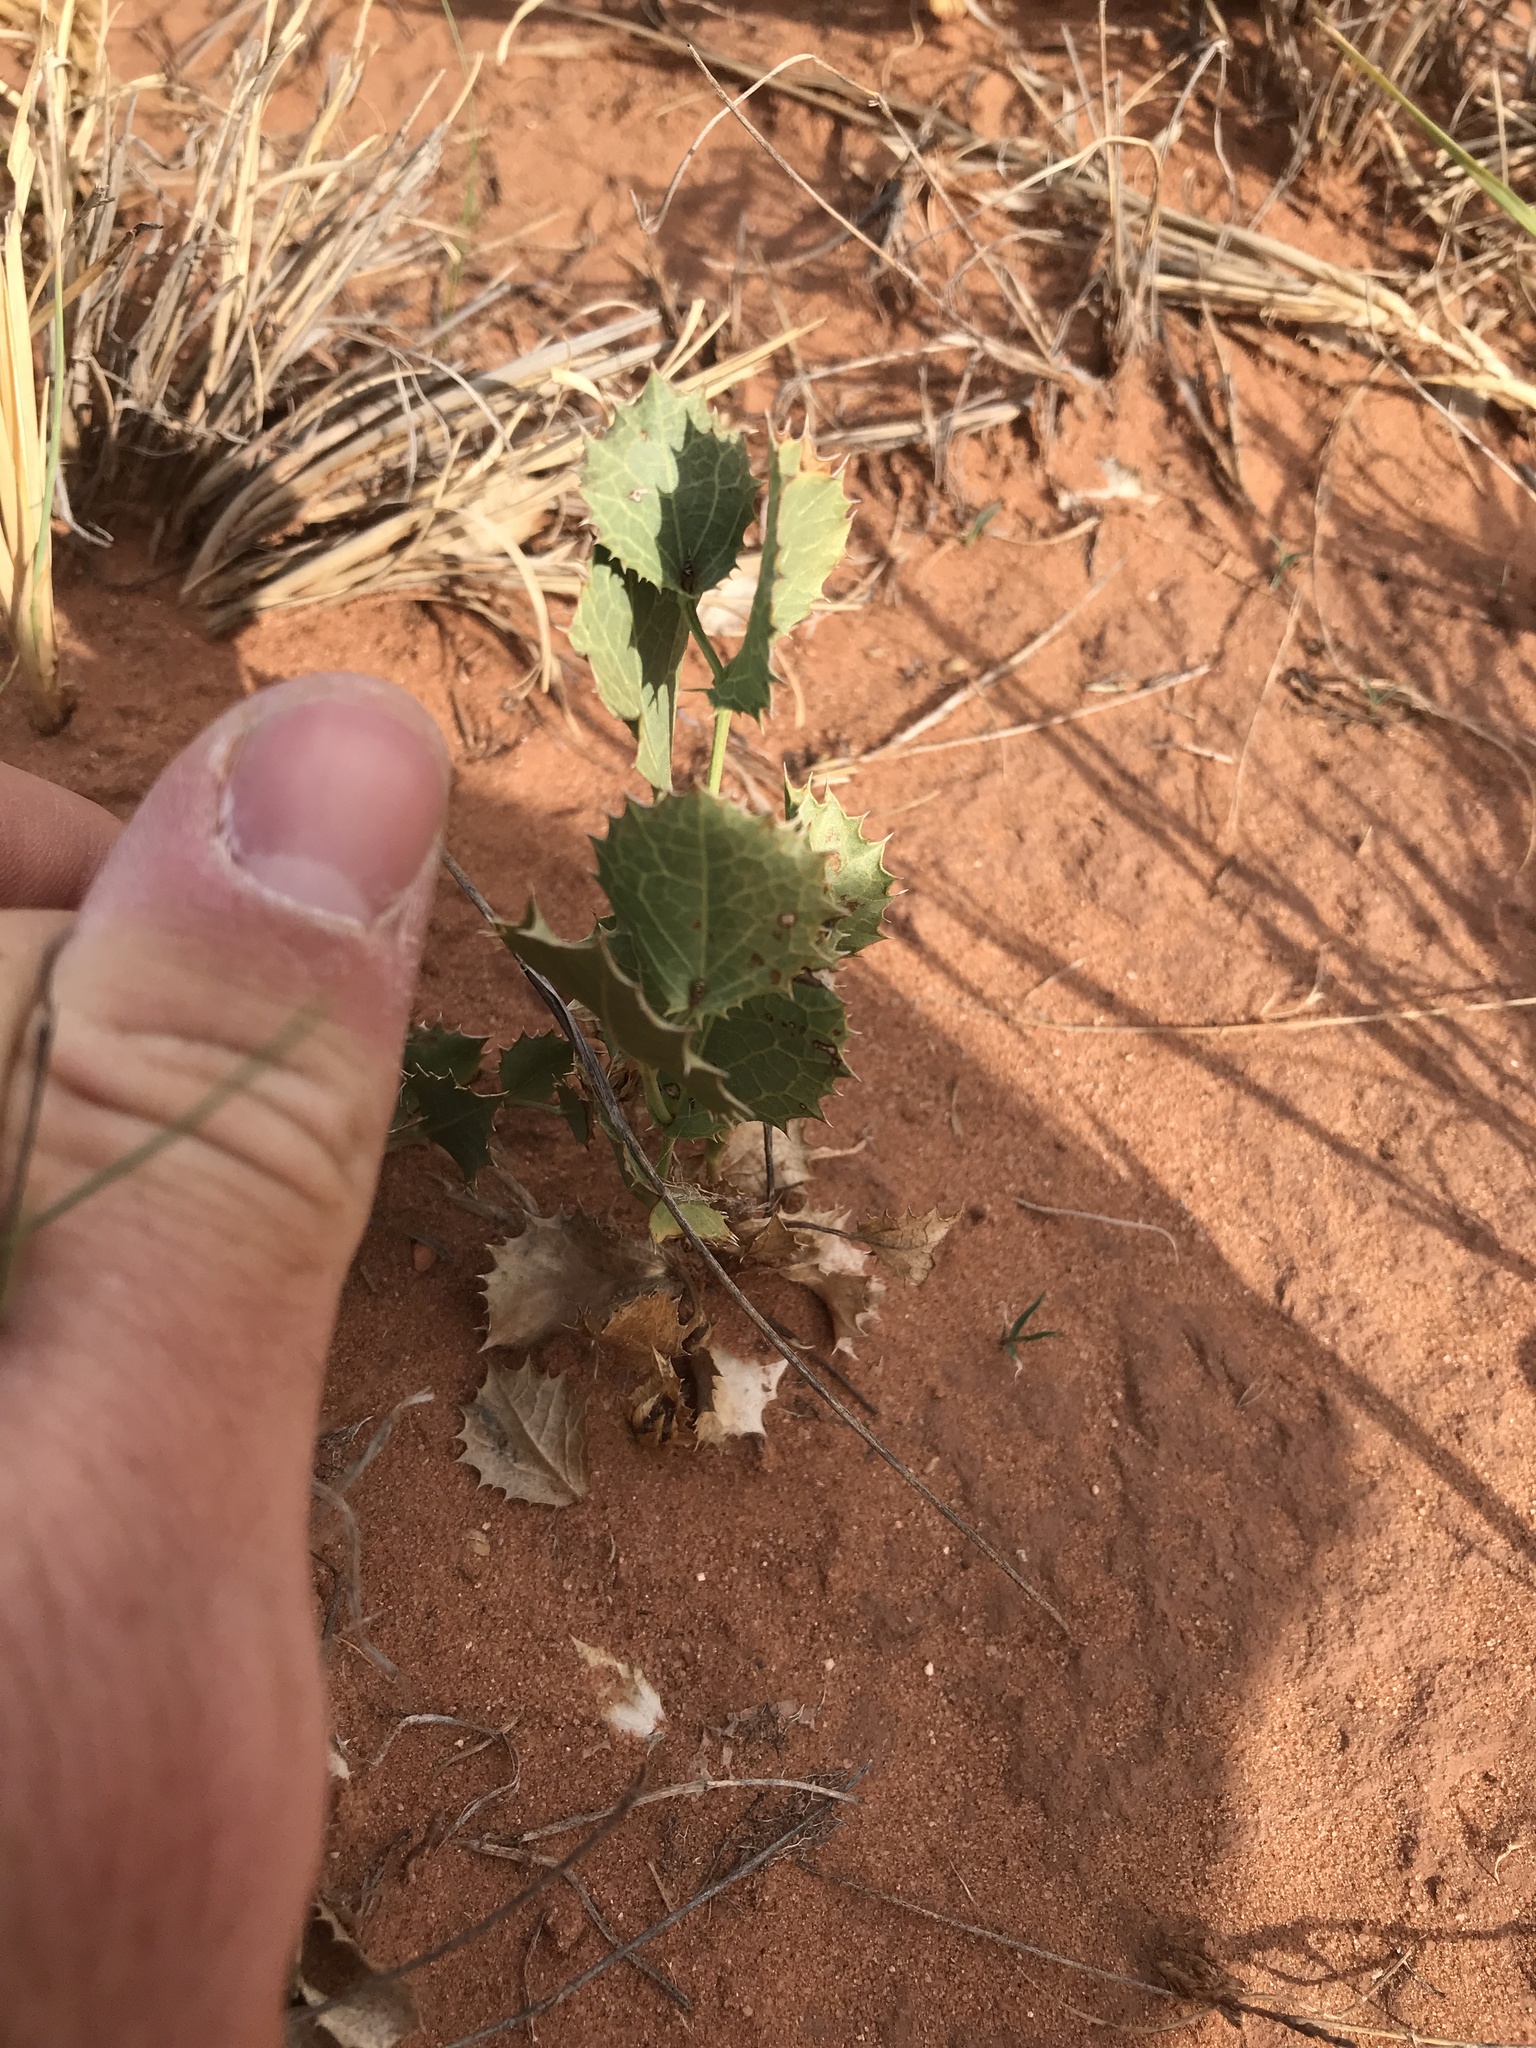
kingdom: Plantae
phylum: Tracheophyta
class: Magnoliopsida
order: Asterales
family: Asteraceae
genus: Acourtia
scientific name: Acourtia nana
